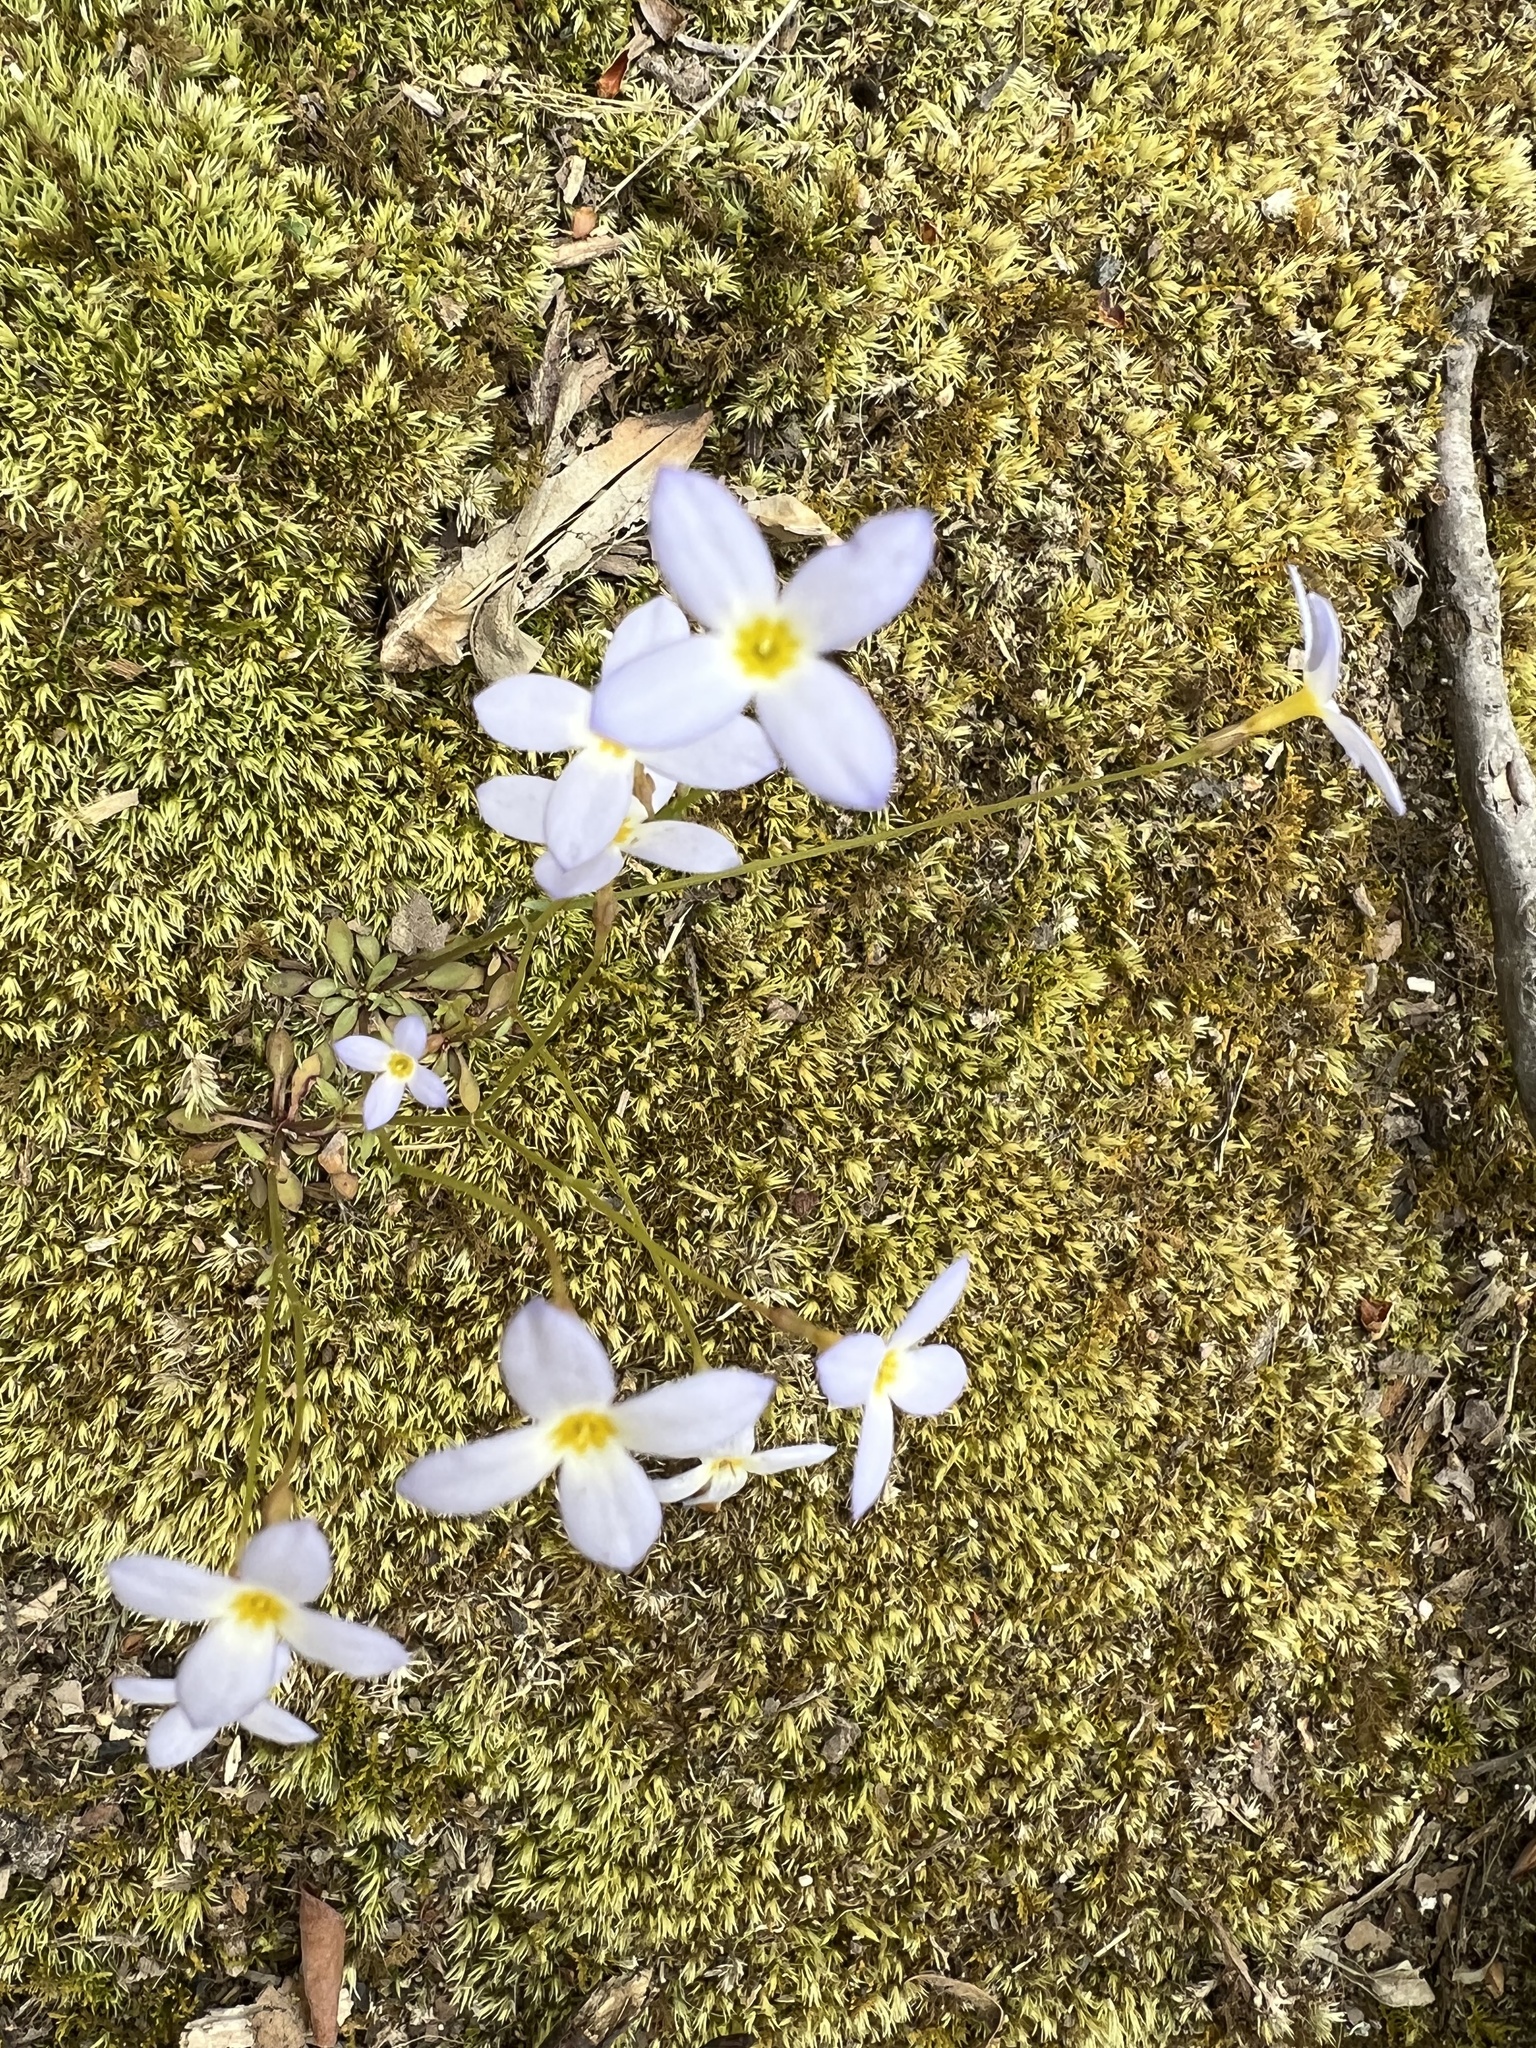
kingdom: Plantae
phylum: Tracheophyta
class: Magnoliopsida
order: Gentianales
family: Rubiaceae
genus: Houstonia
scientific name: Houstonia caerulea
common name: Bluets
